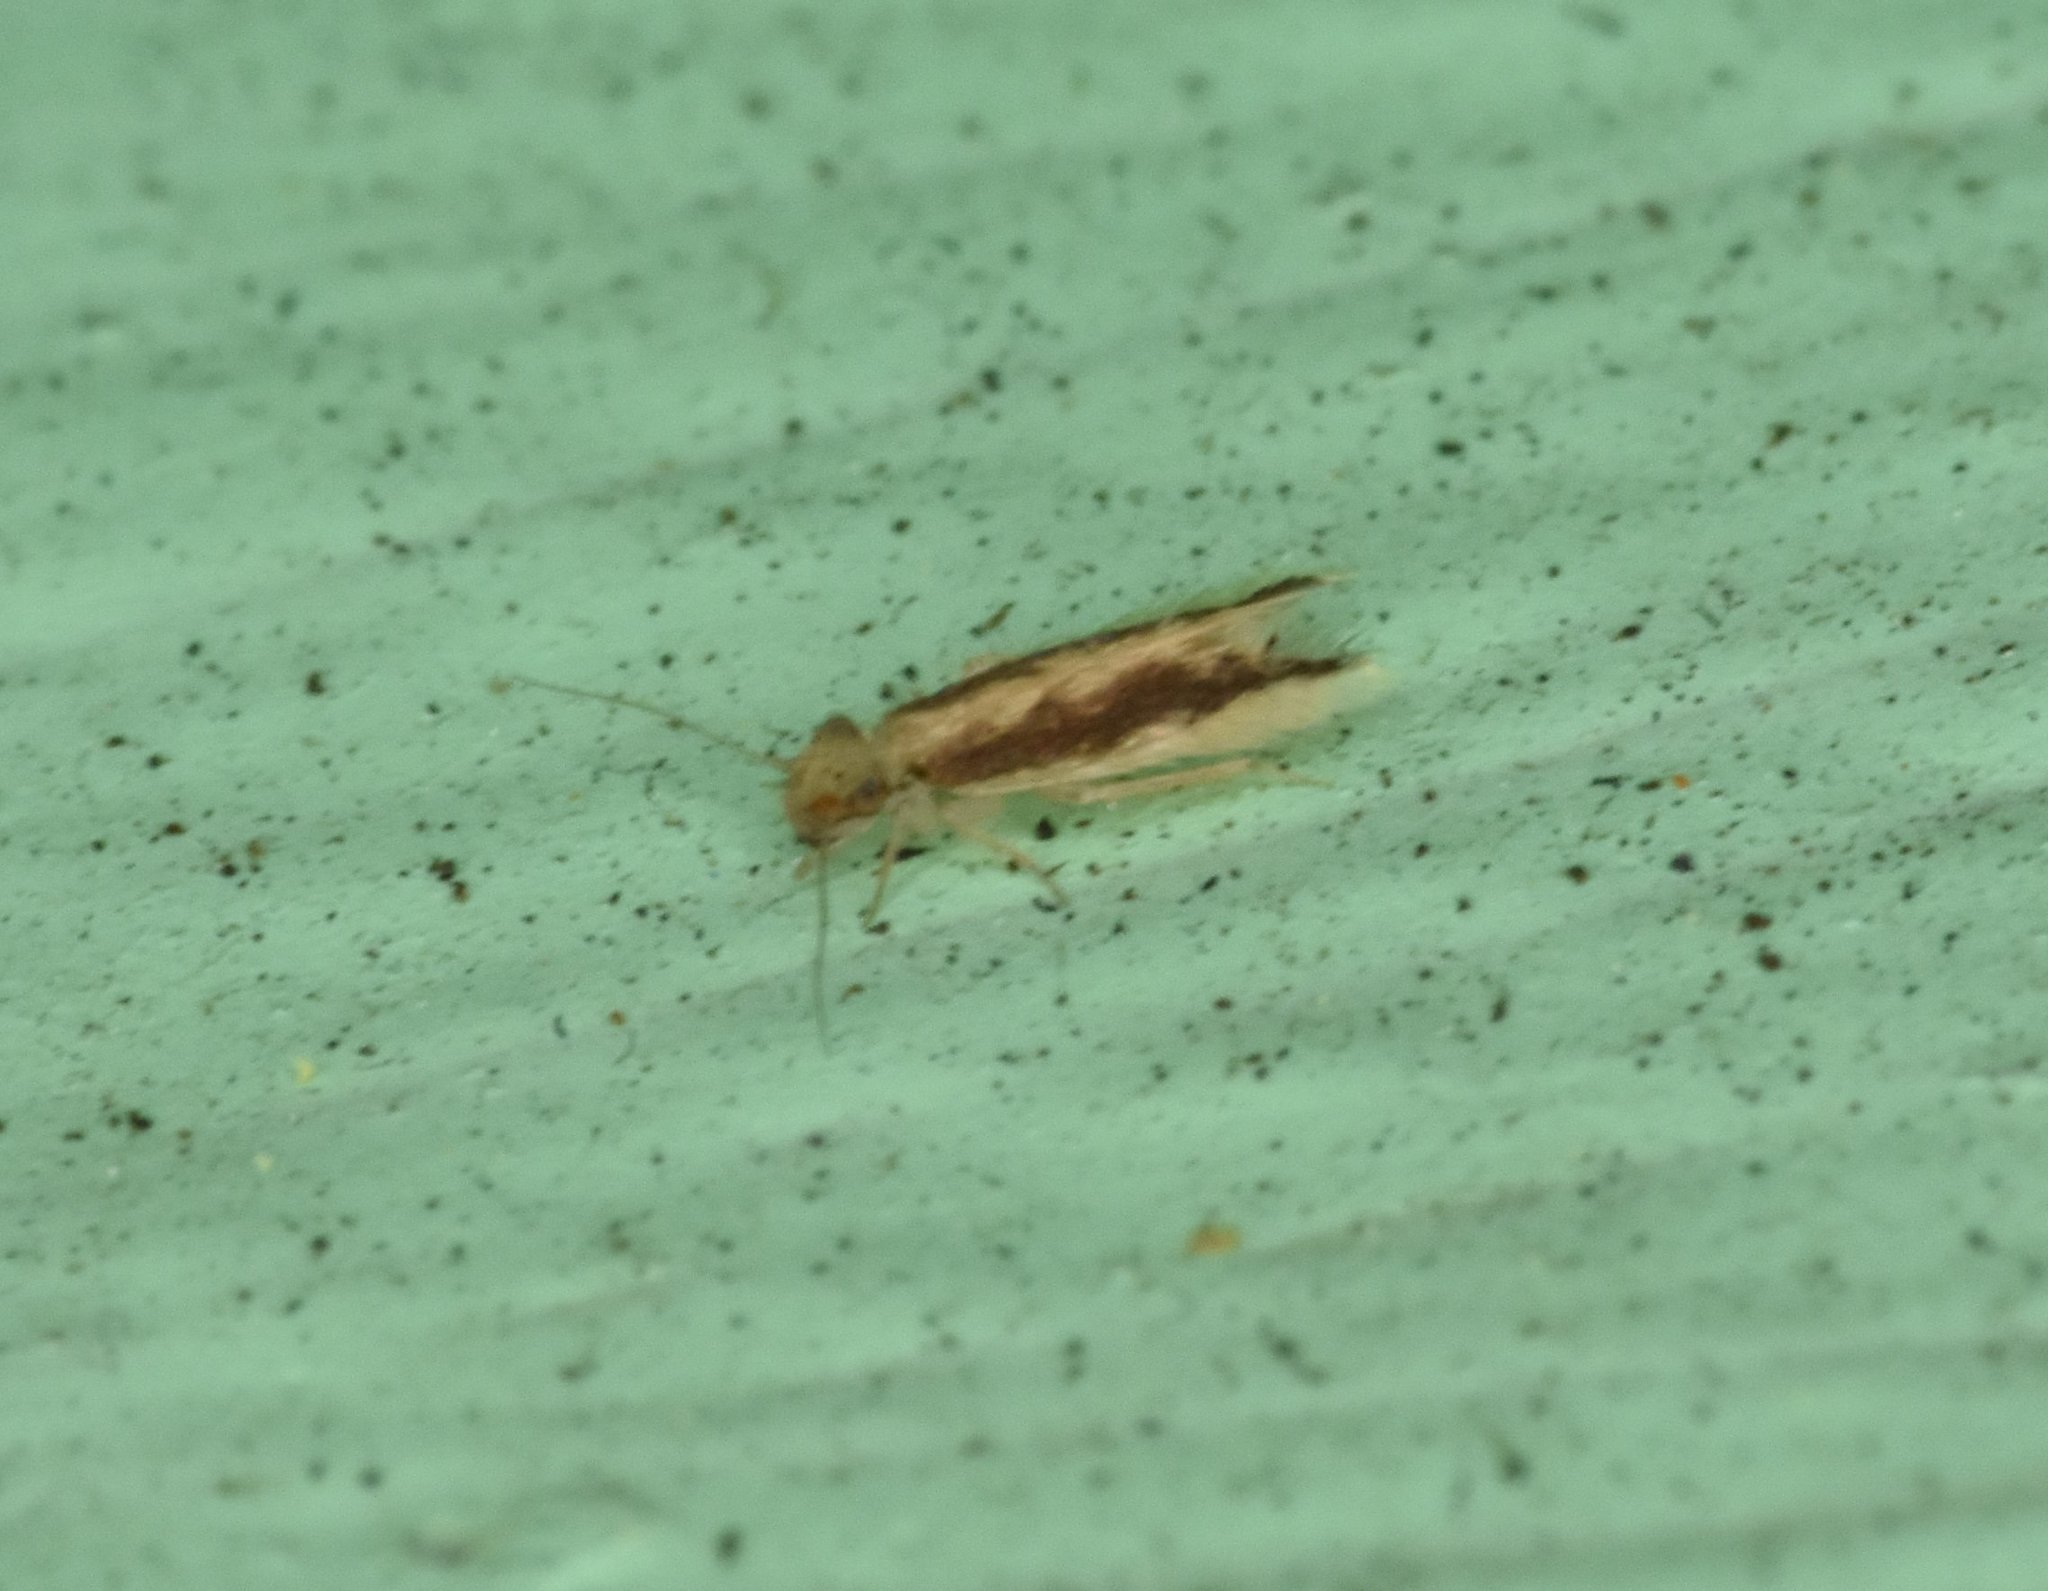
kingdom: Animalia
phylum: Arthropoda
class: Insecta
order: Psocodea
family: Lepidopsocidae
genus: Echmepteryx
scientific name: Echmepteryx madagascariensis
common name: Bark lice
